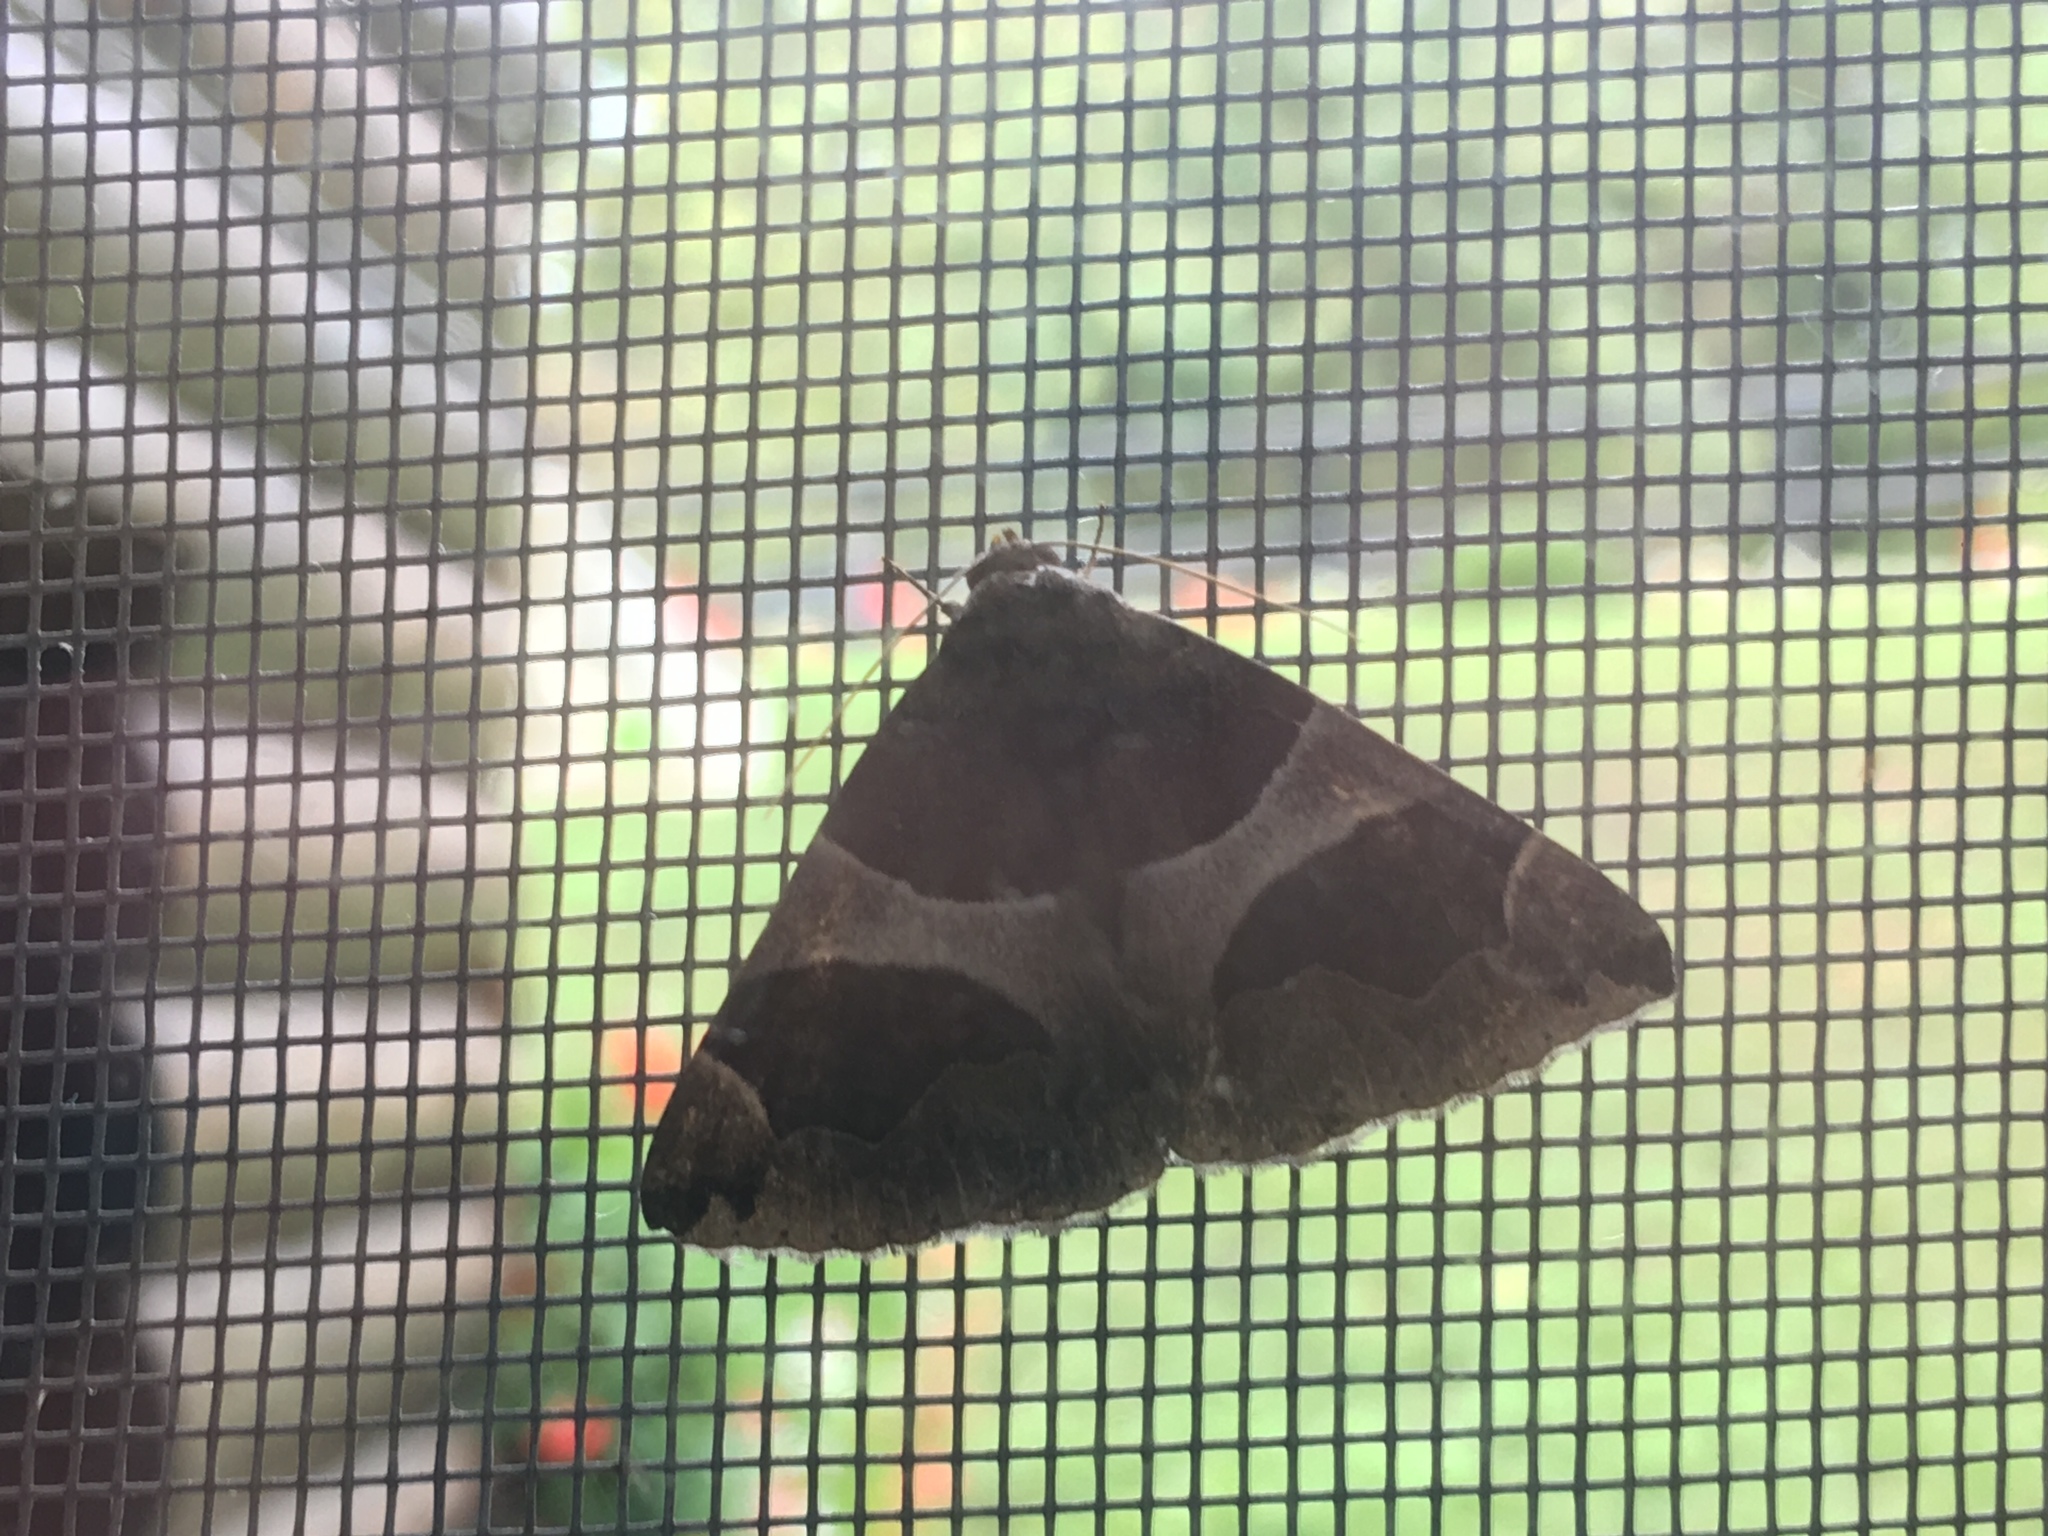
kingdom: Animalia
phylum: Arthropoda
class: Insecta
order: Lepidoptera
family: Erebidae
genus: Dysgonia
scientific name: Dysgonia algira
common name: Passenger
